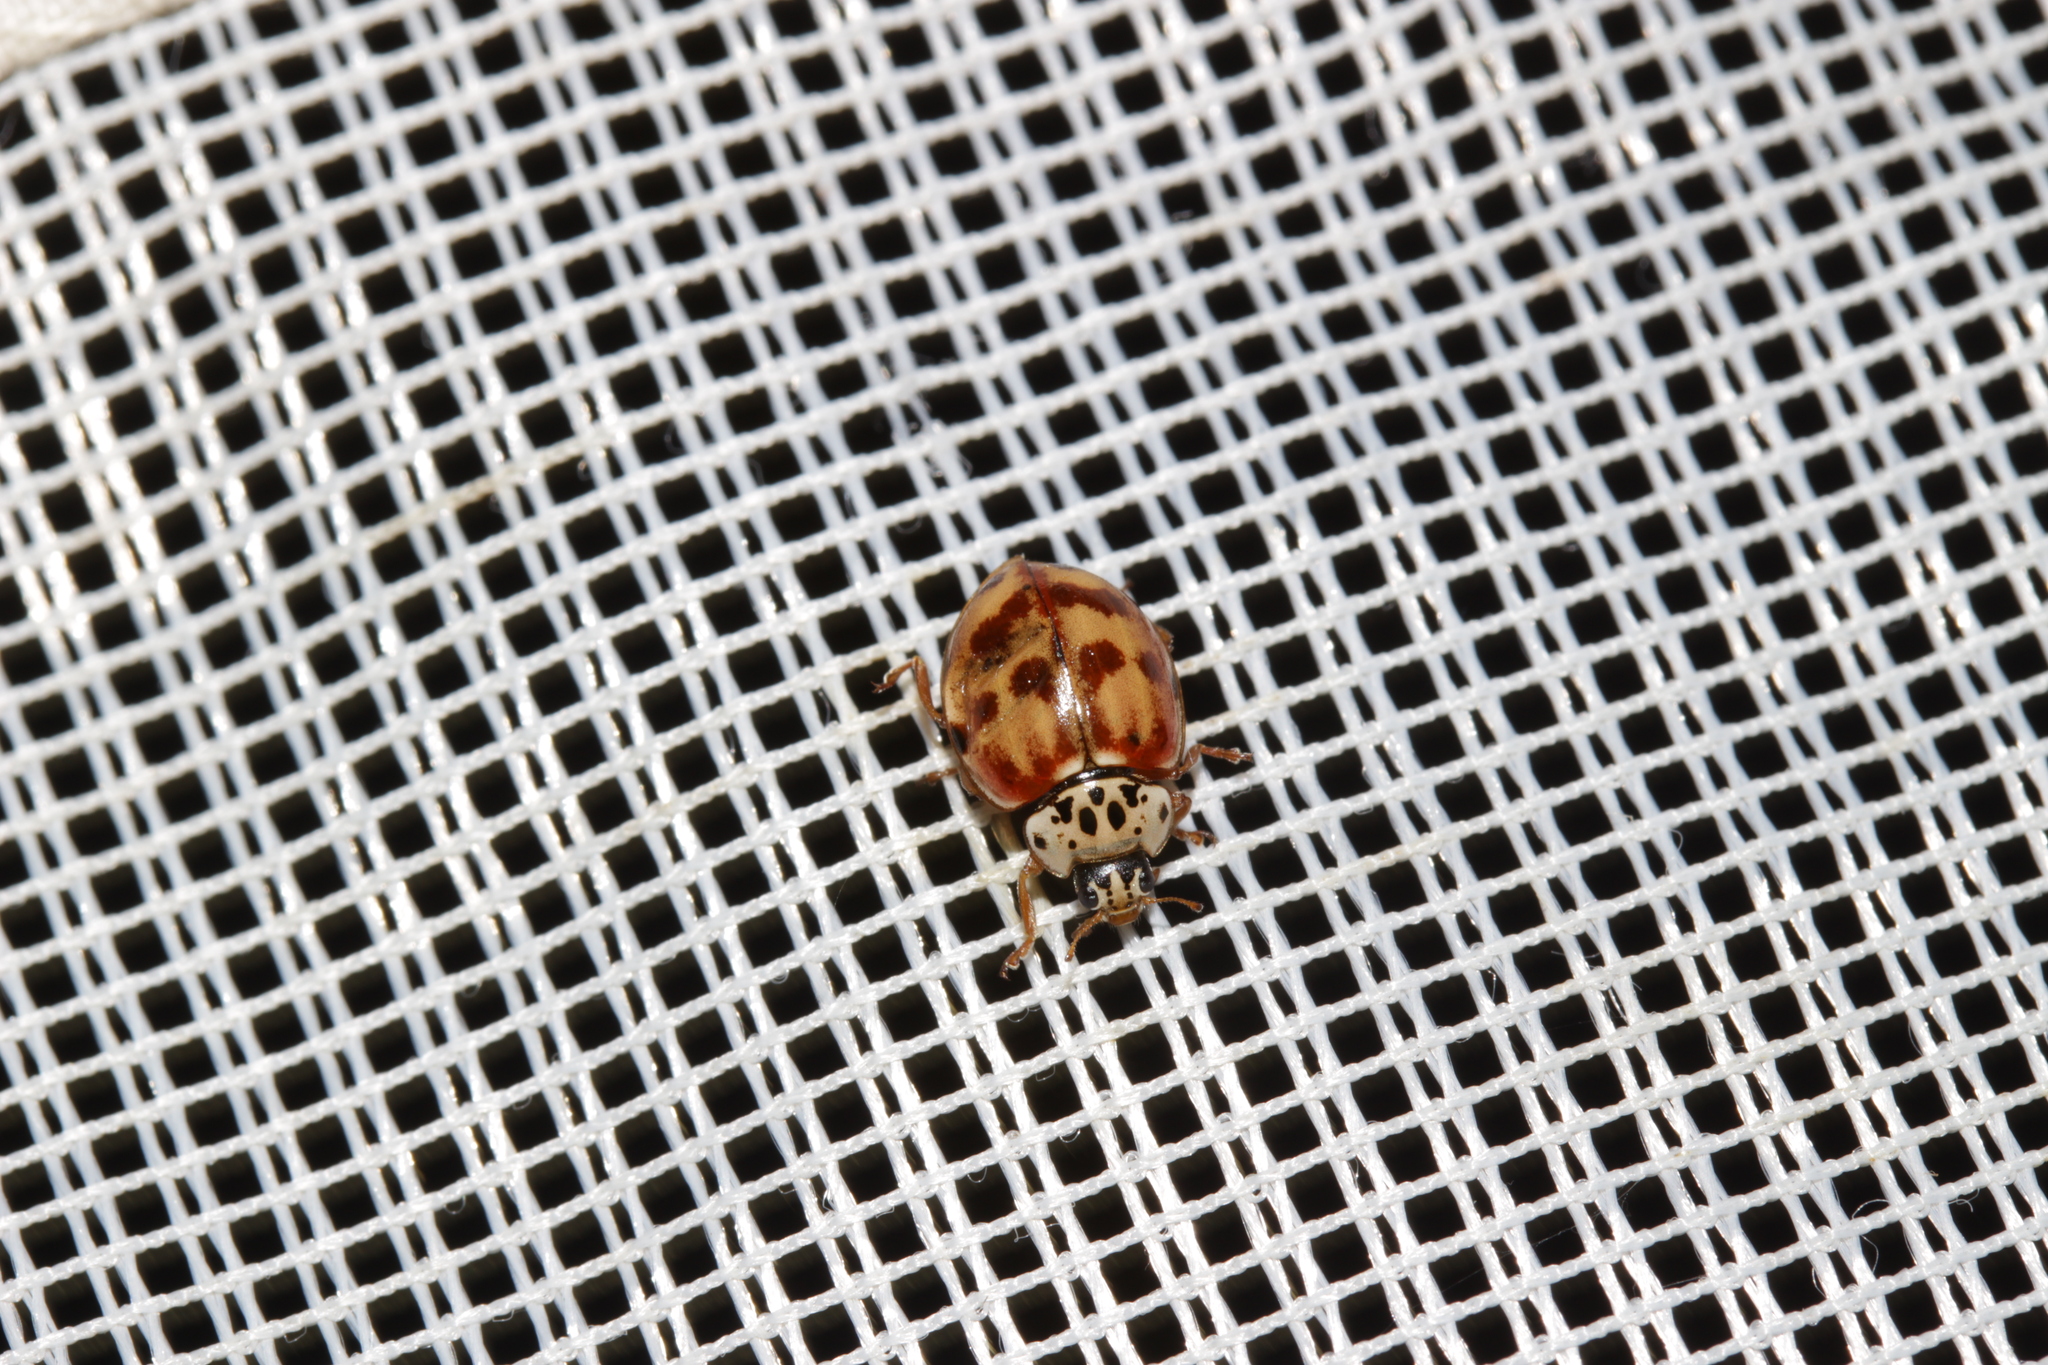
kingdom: Animalia
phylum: Arthropoda
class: Insecta
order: Coleoptera
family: Coccinellidae
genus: Harmonia
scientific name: Harmonia quadripunctata
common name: Cream-streaked ladybird
